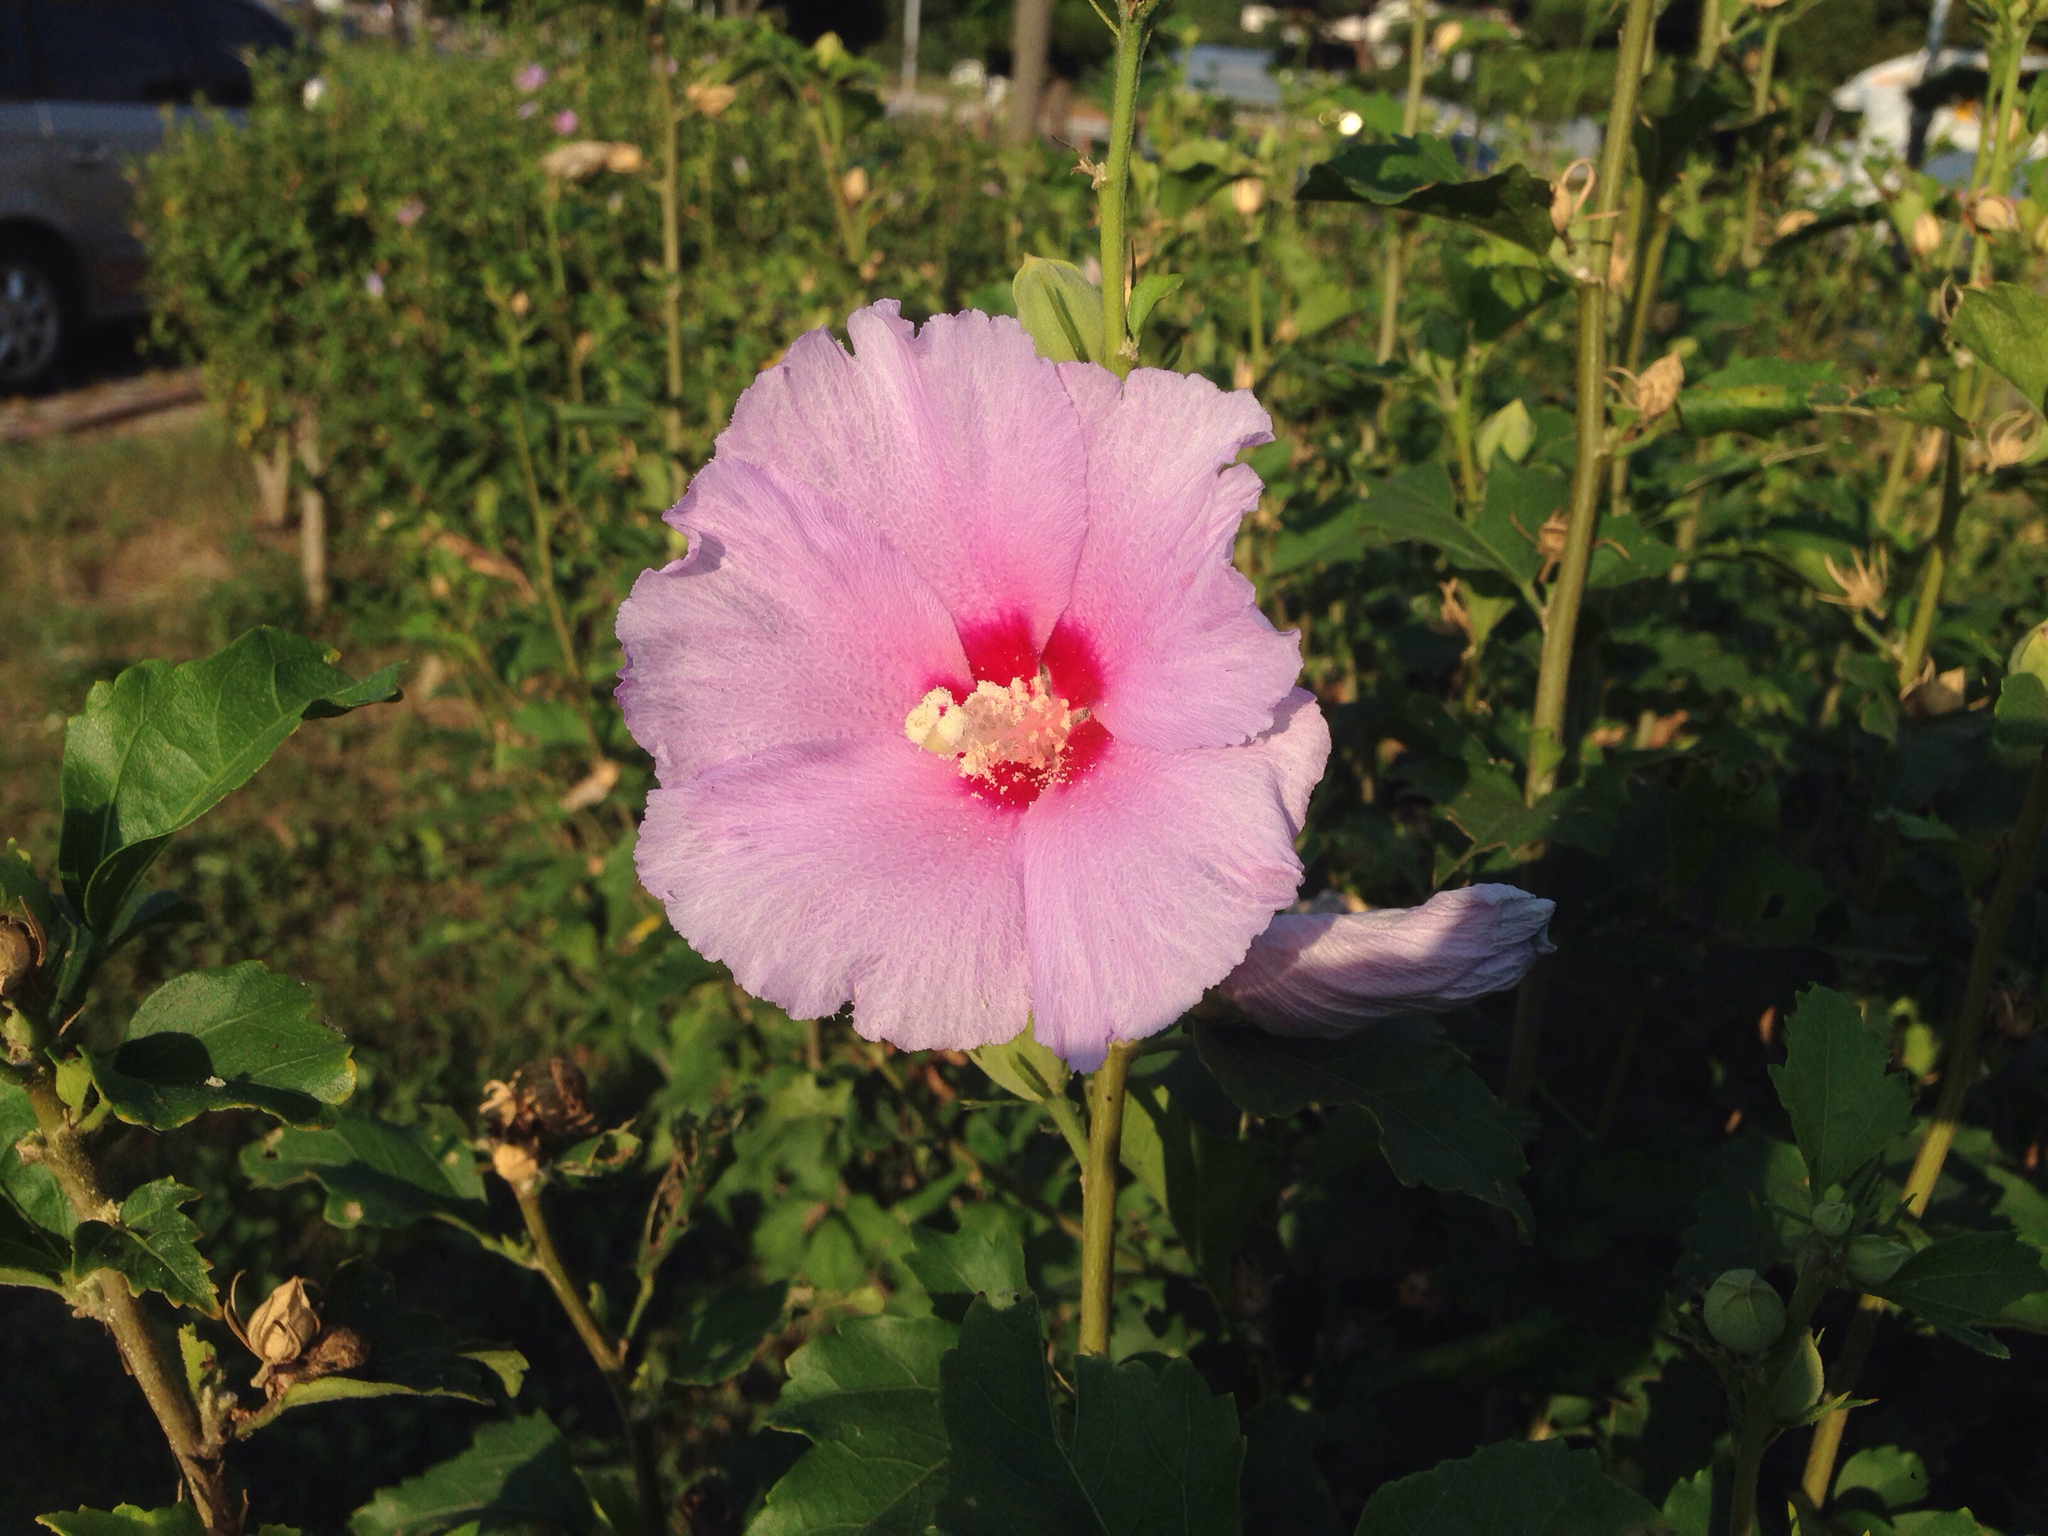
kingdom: Plantae
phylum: Tracheophyta
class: Magnoliopsida
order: Malvales
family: Malvaceae
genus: Hibiscus
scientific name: Hibiscus syriacus
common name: Syrian ketmia
